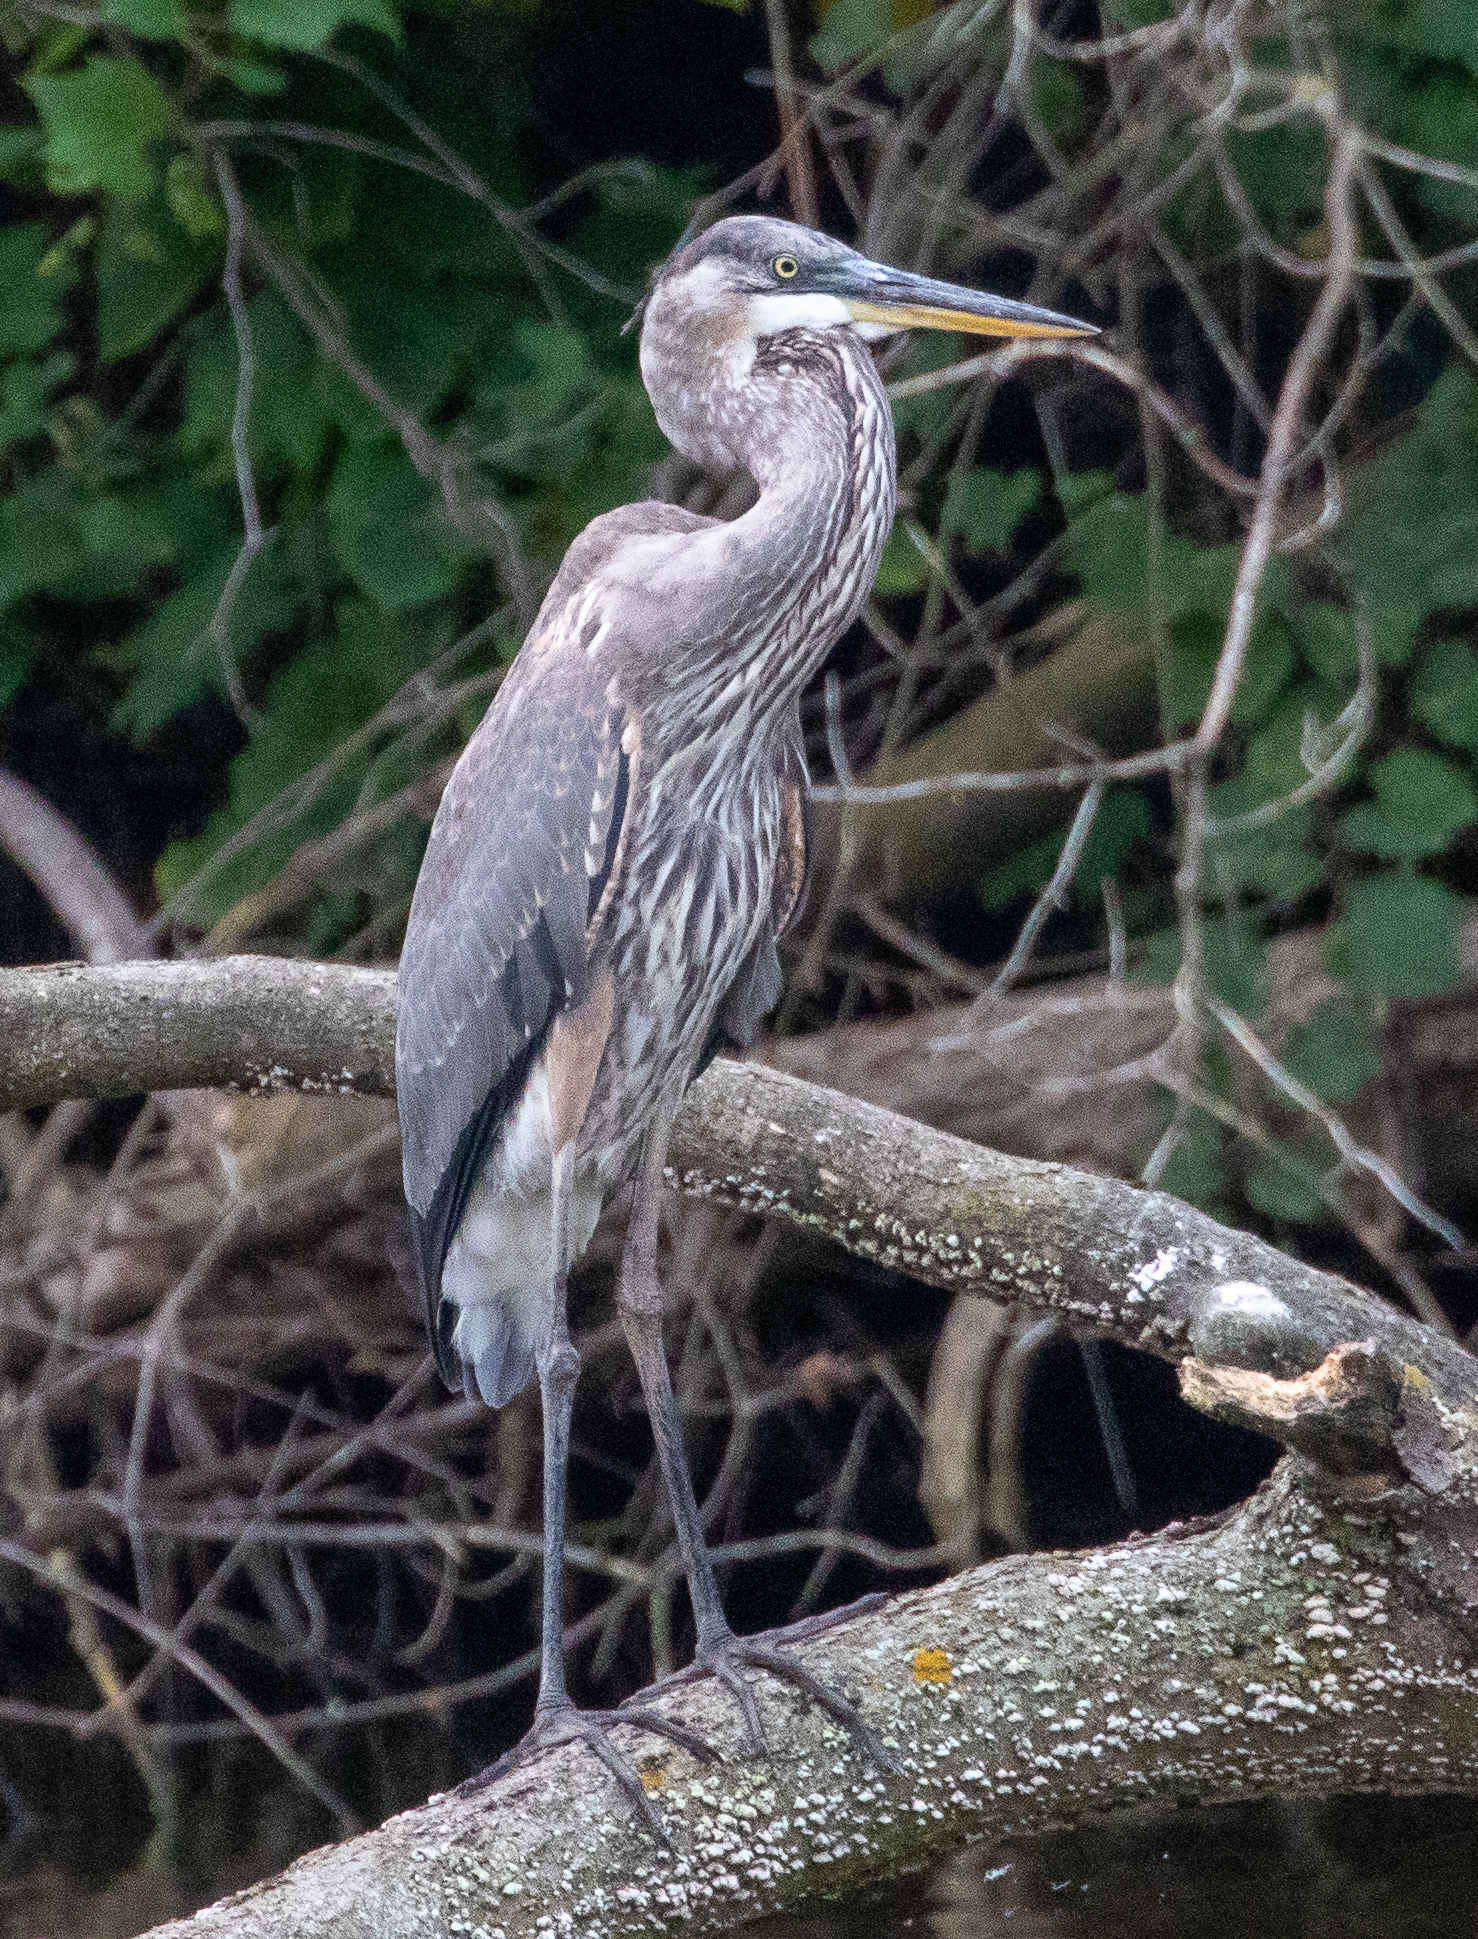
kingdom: Animalia
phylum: Chordata
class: Aves
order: Pelecaniformes
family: Ardeidae
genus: Ardea
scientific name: Ardea herodias
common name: Great blue heron
